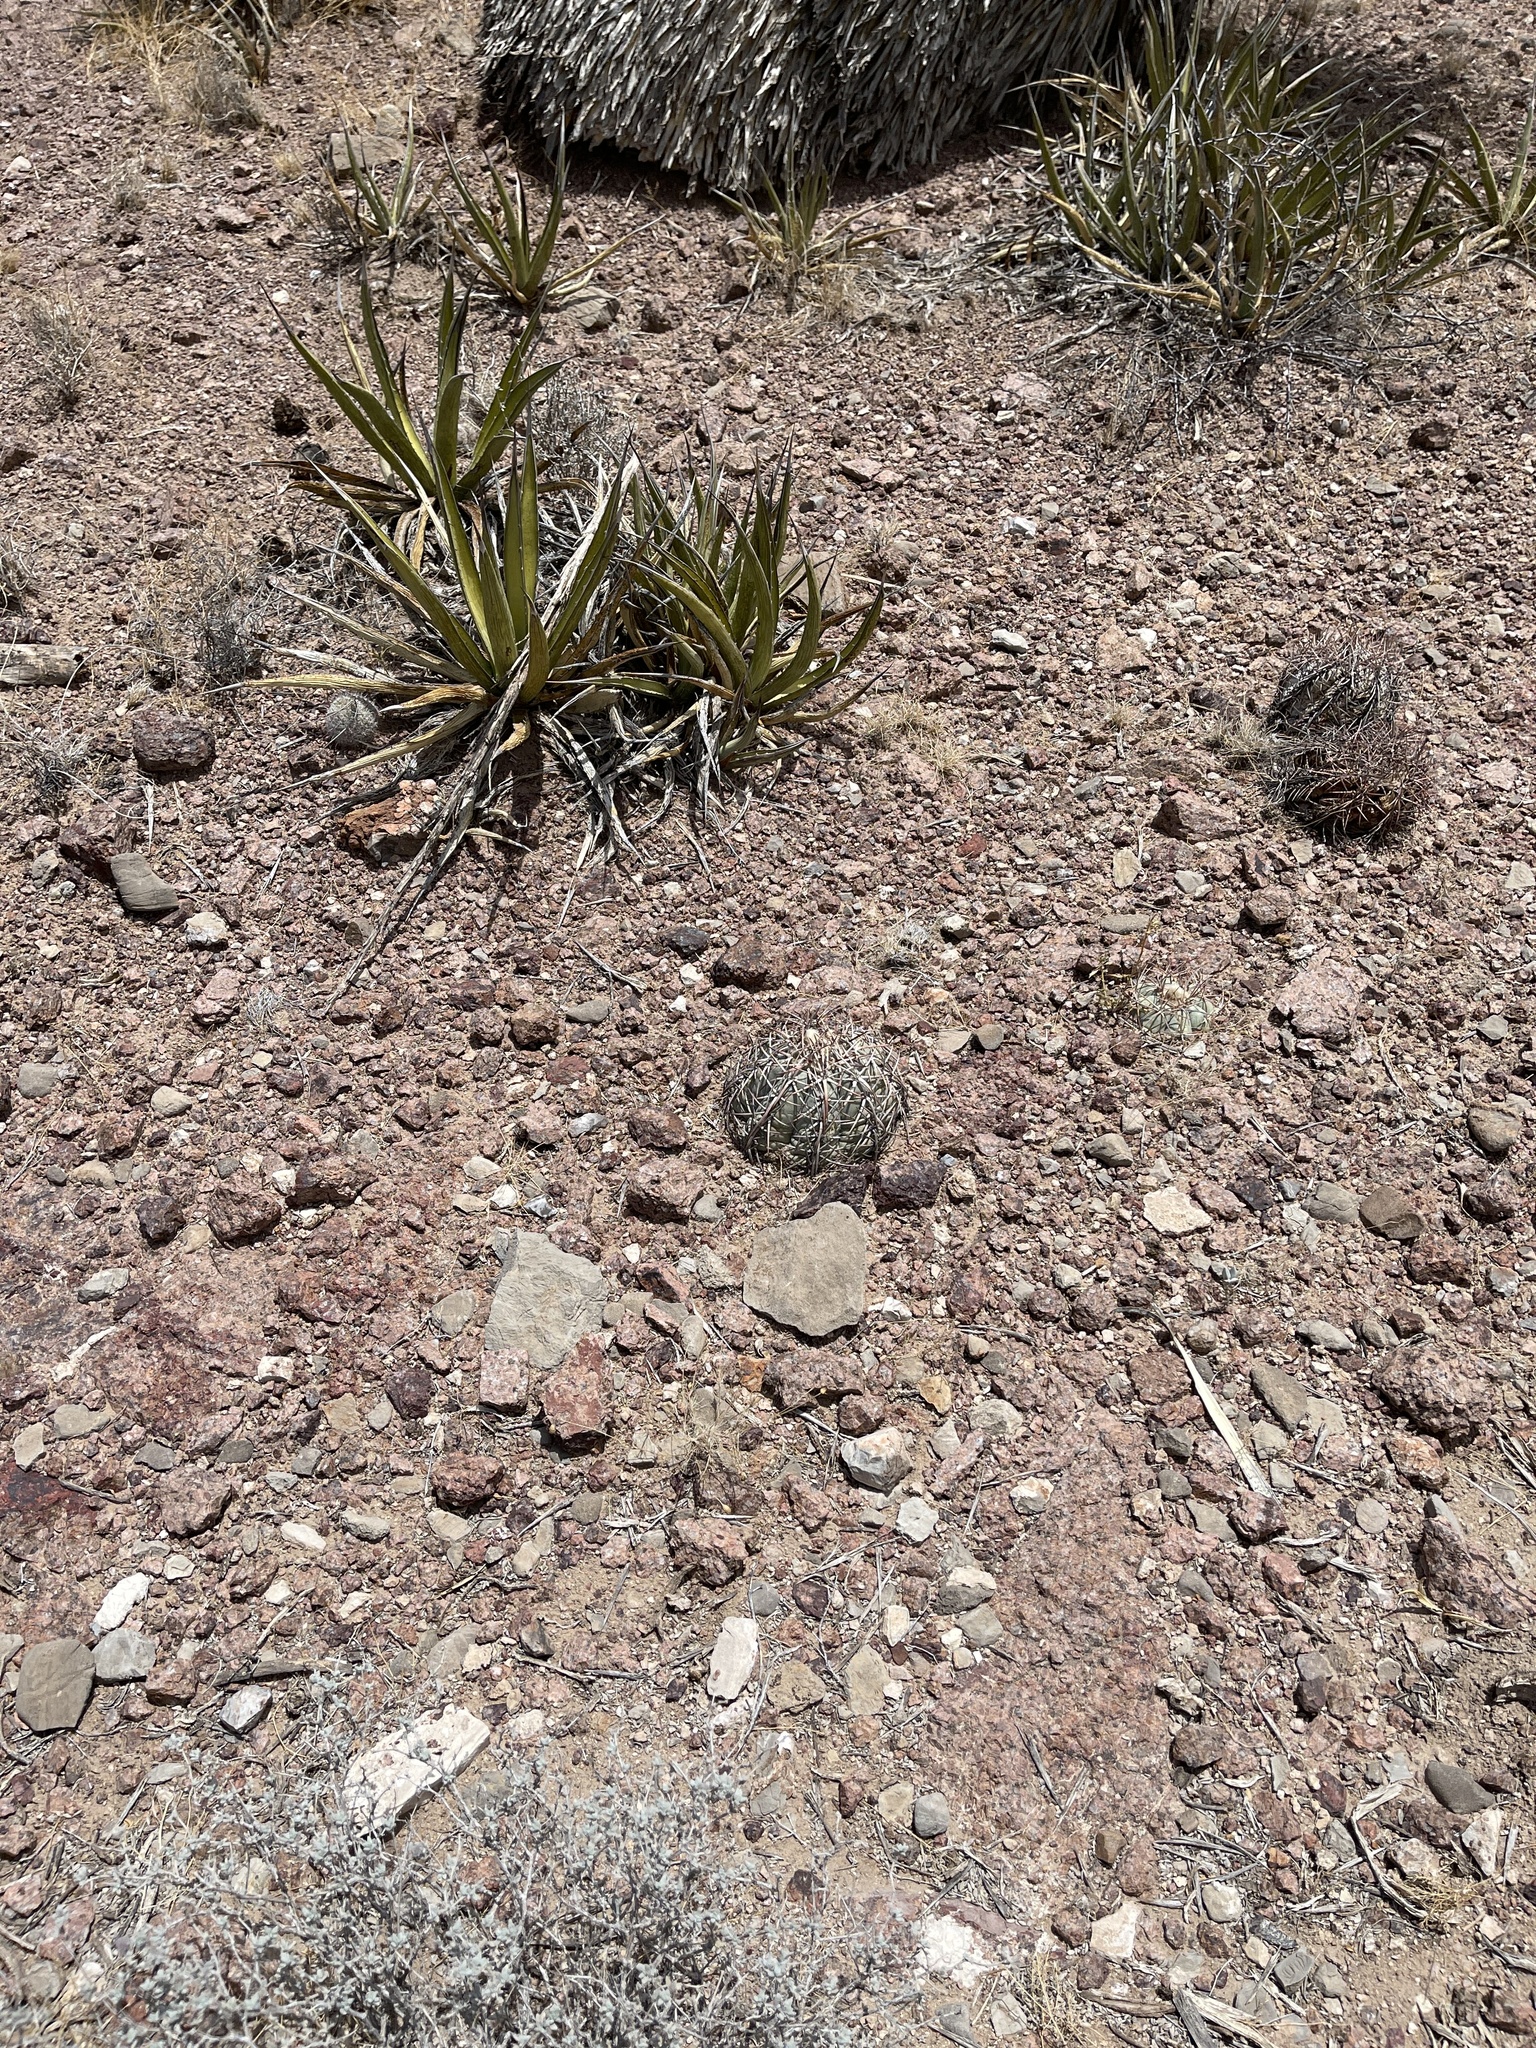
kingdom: Plantae
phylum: Tracheophyta
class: Magnoliopsida
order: Caryophyllales
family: Cactaceae
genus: Echinocactus
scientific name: Echinocactus horizonthalonius
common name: Devilshead
